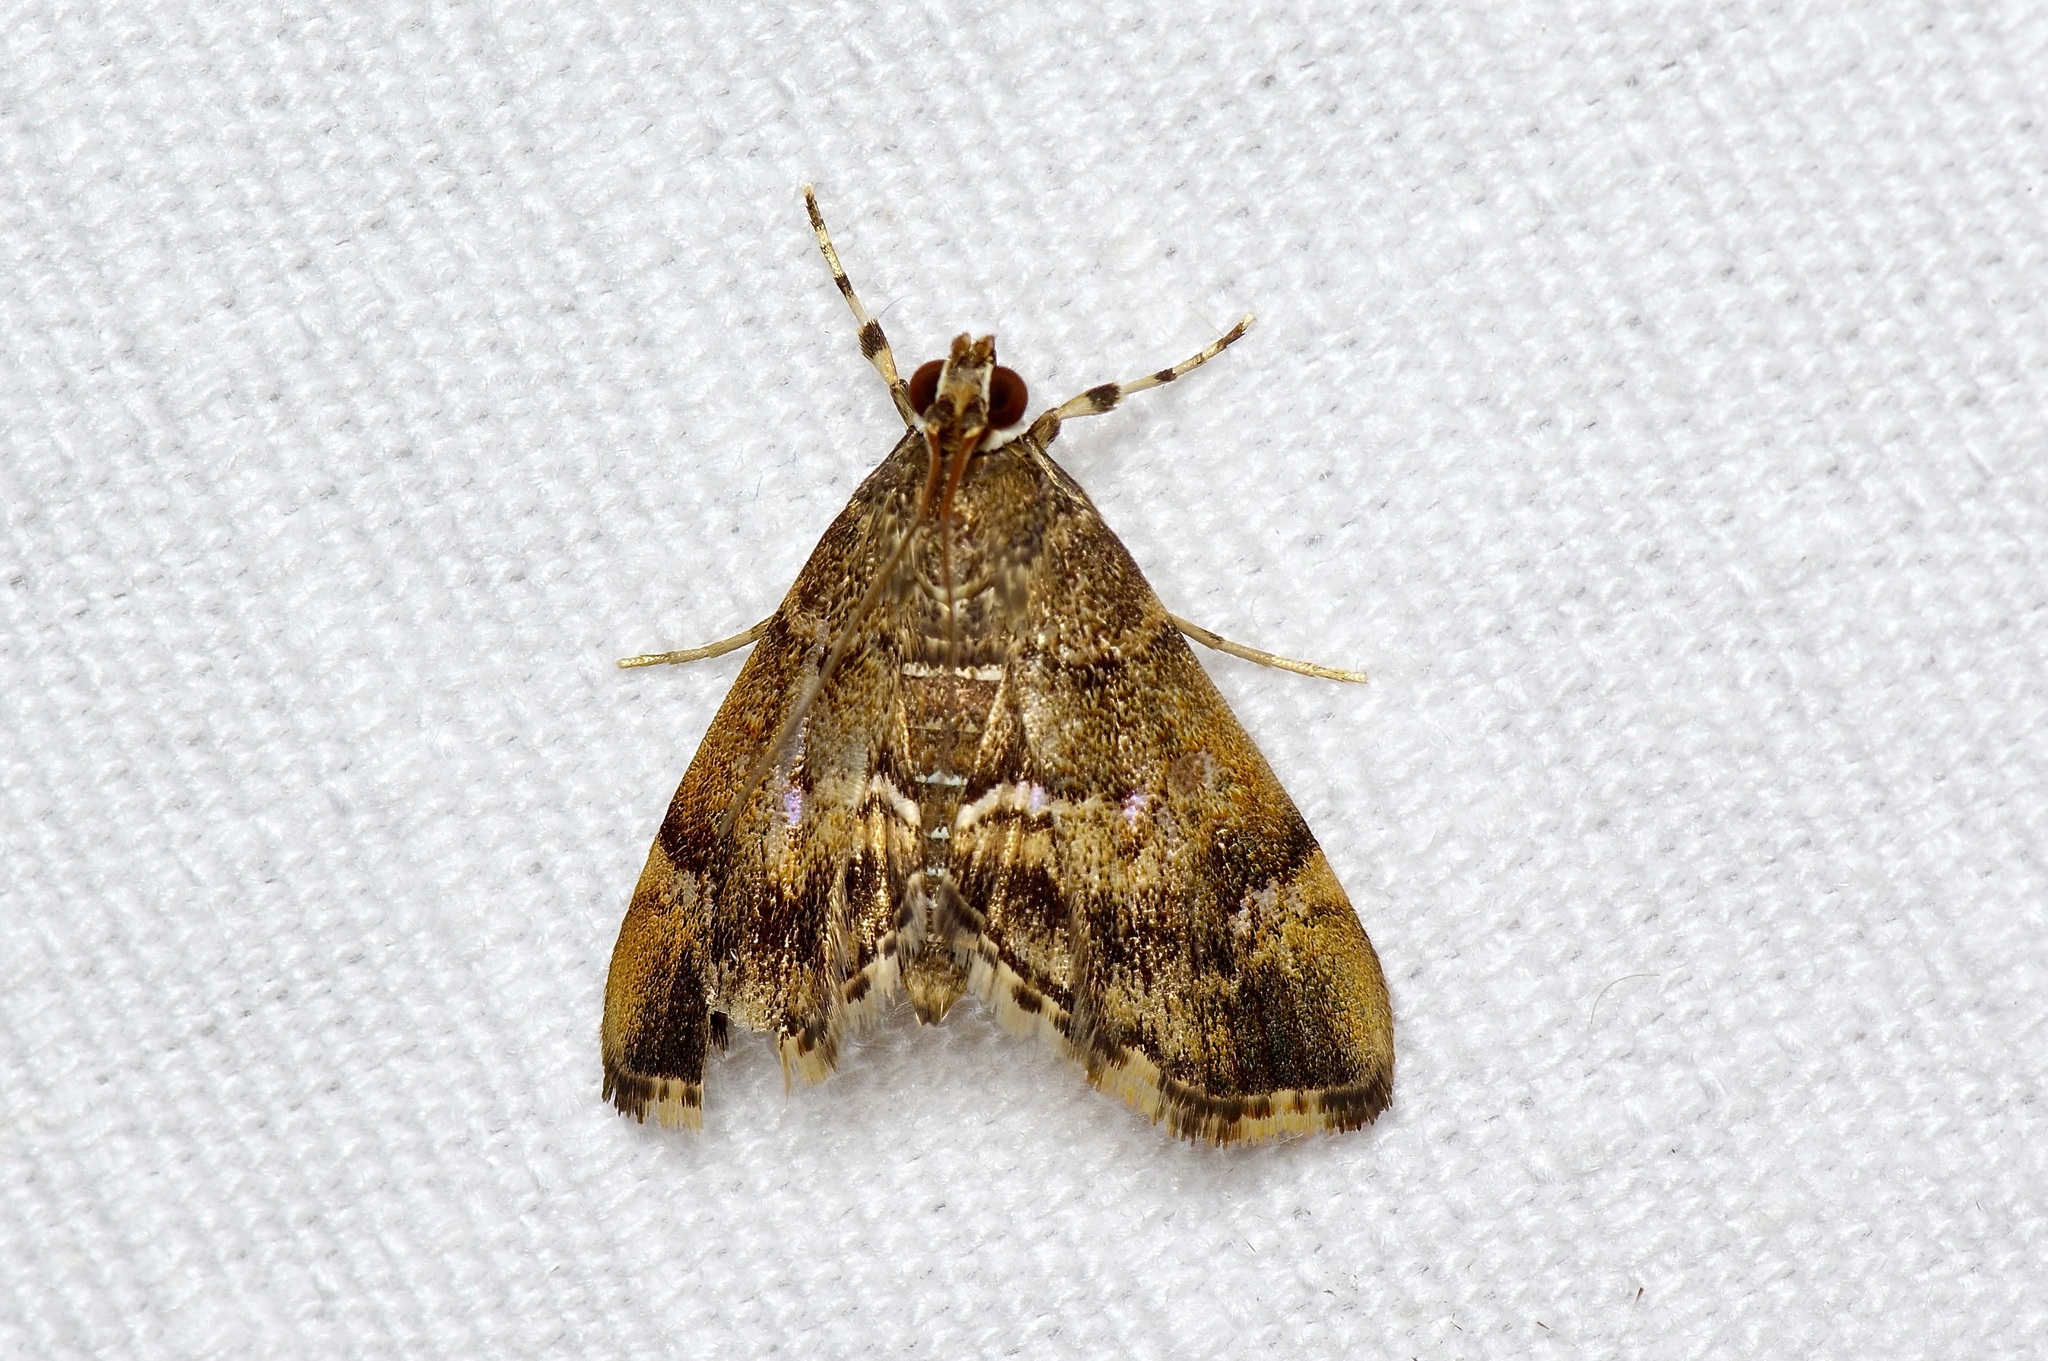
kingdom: Animalia
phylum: Arthropoda
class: Insecta
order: Lepidoptera
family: Crambidae
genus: Hymenia
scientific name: Hymenia perspectalis
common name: Spotted beet webworm
